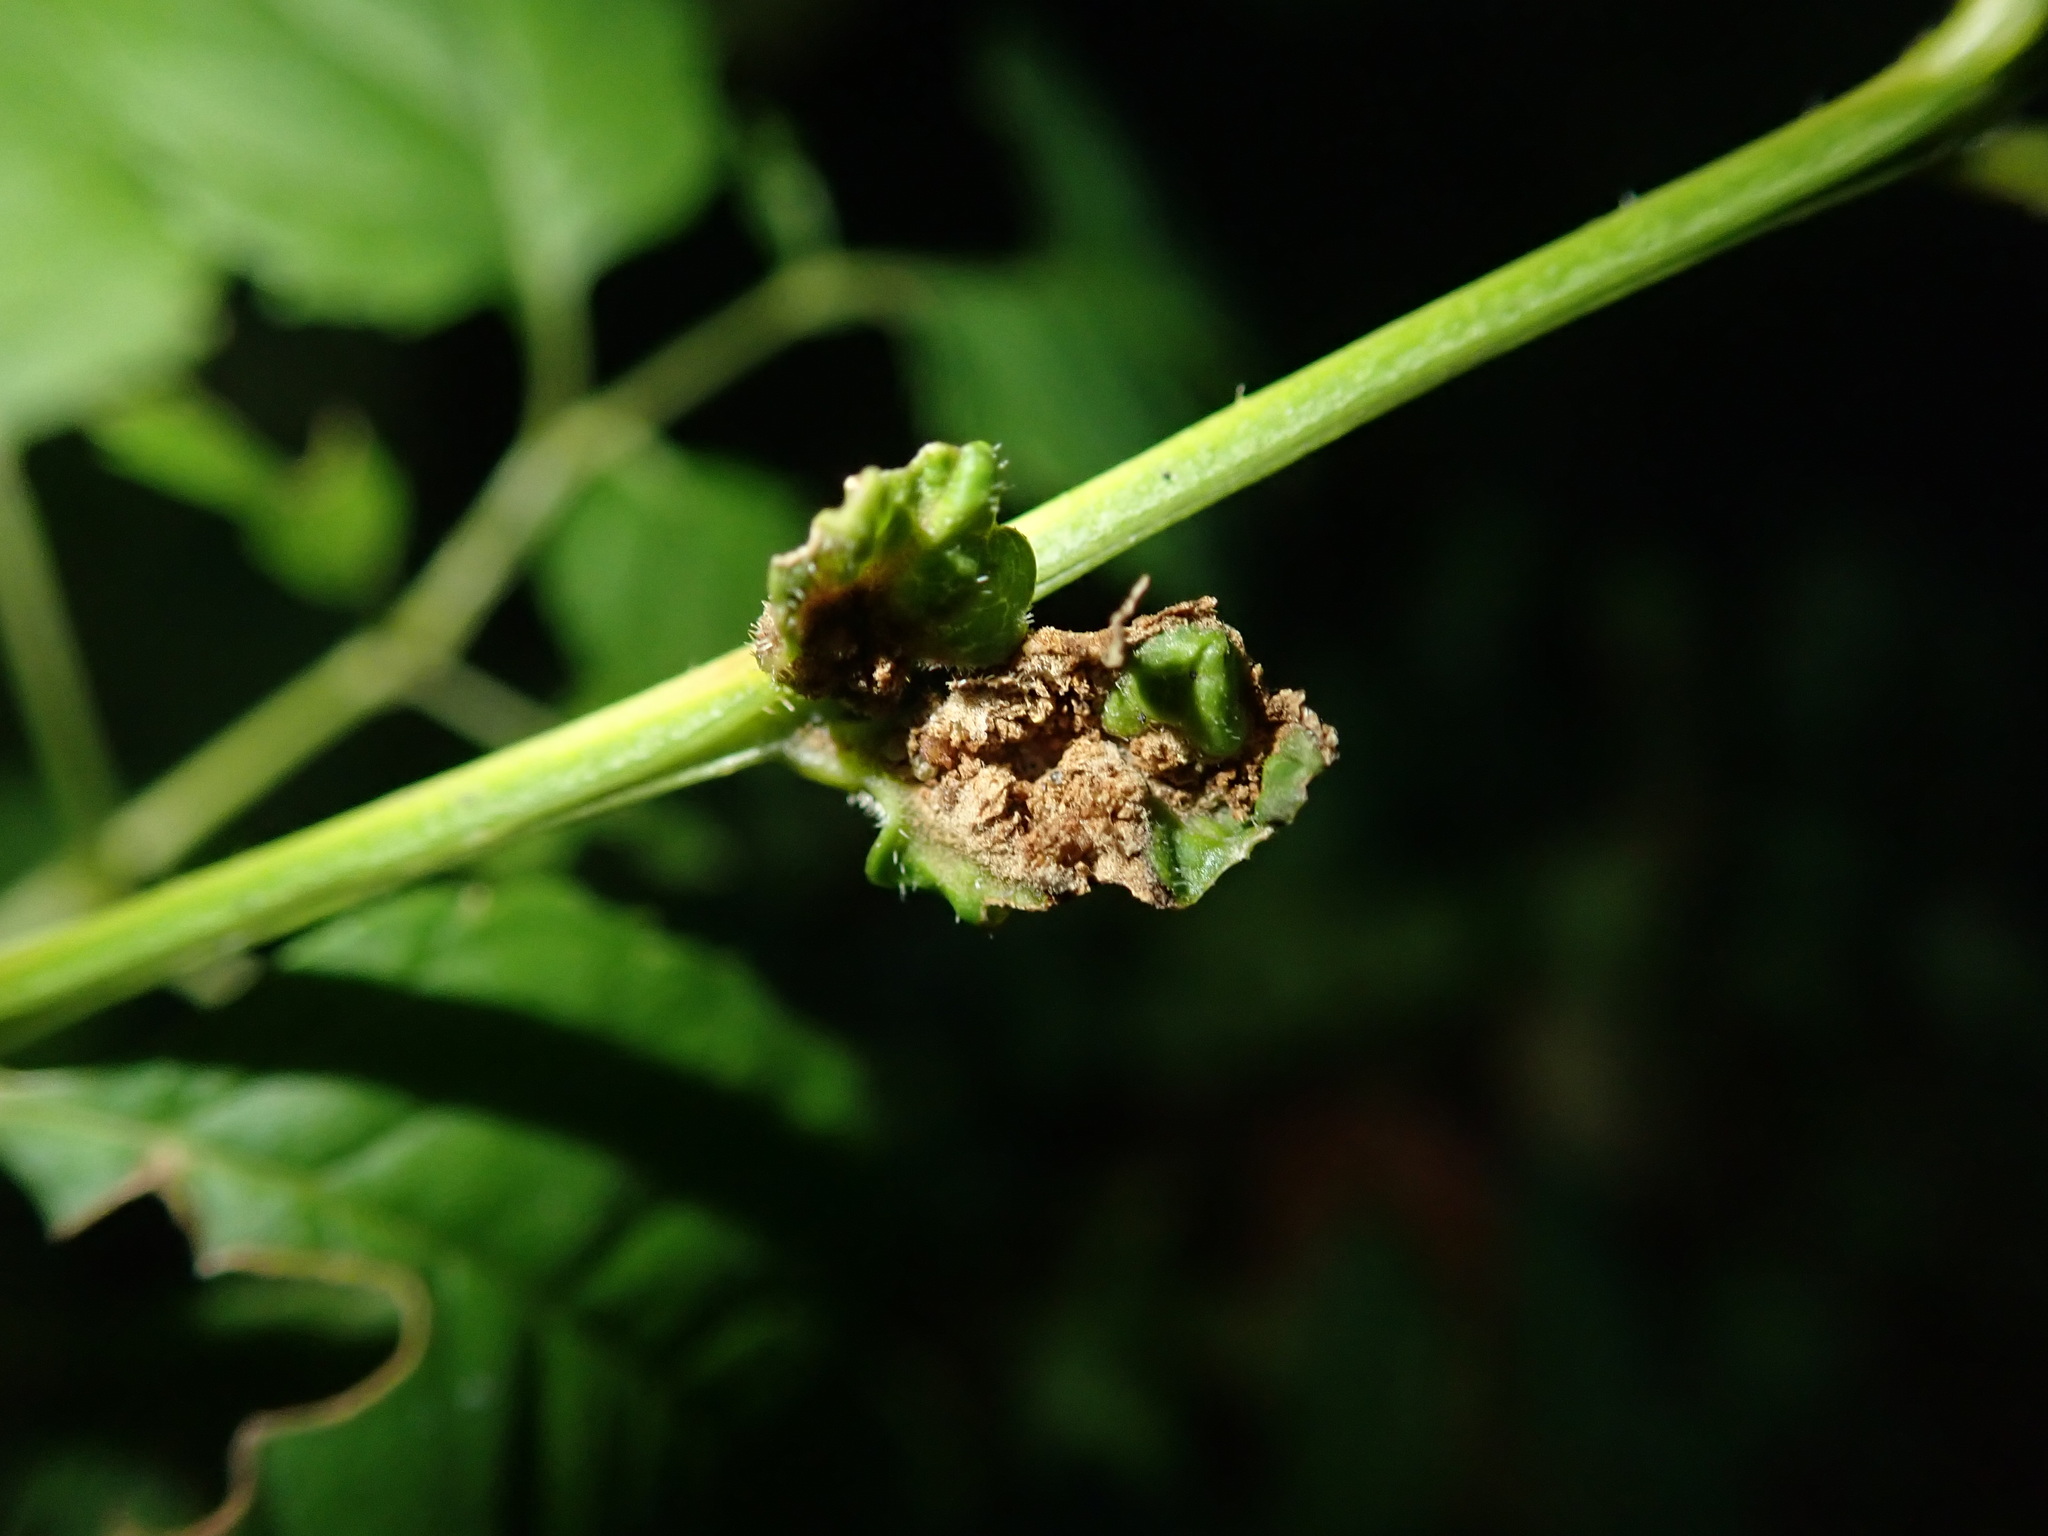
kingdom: Animalia
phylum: Arthropoda
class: Arachnida
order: Trombidiformes
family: Eriophyidae
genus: Aceria
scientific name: Aceria fraxinivora
